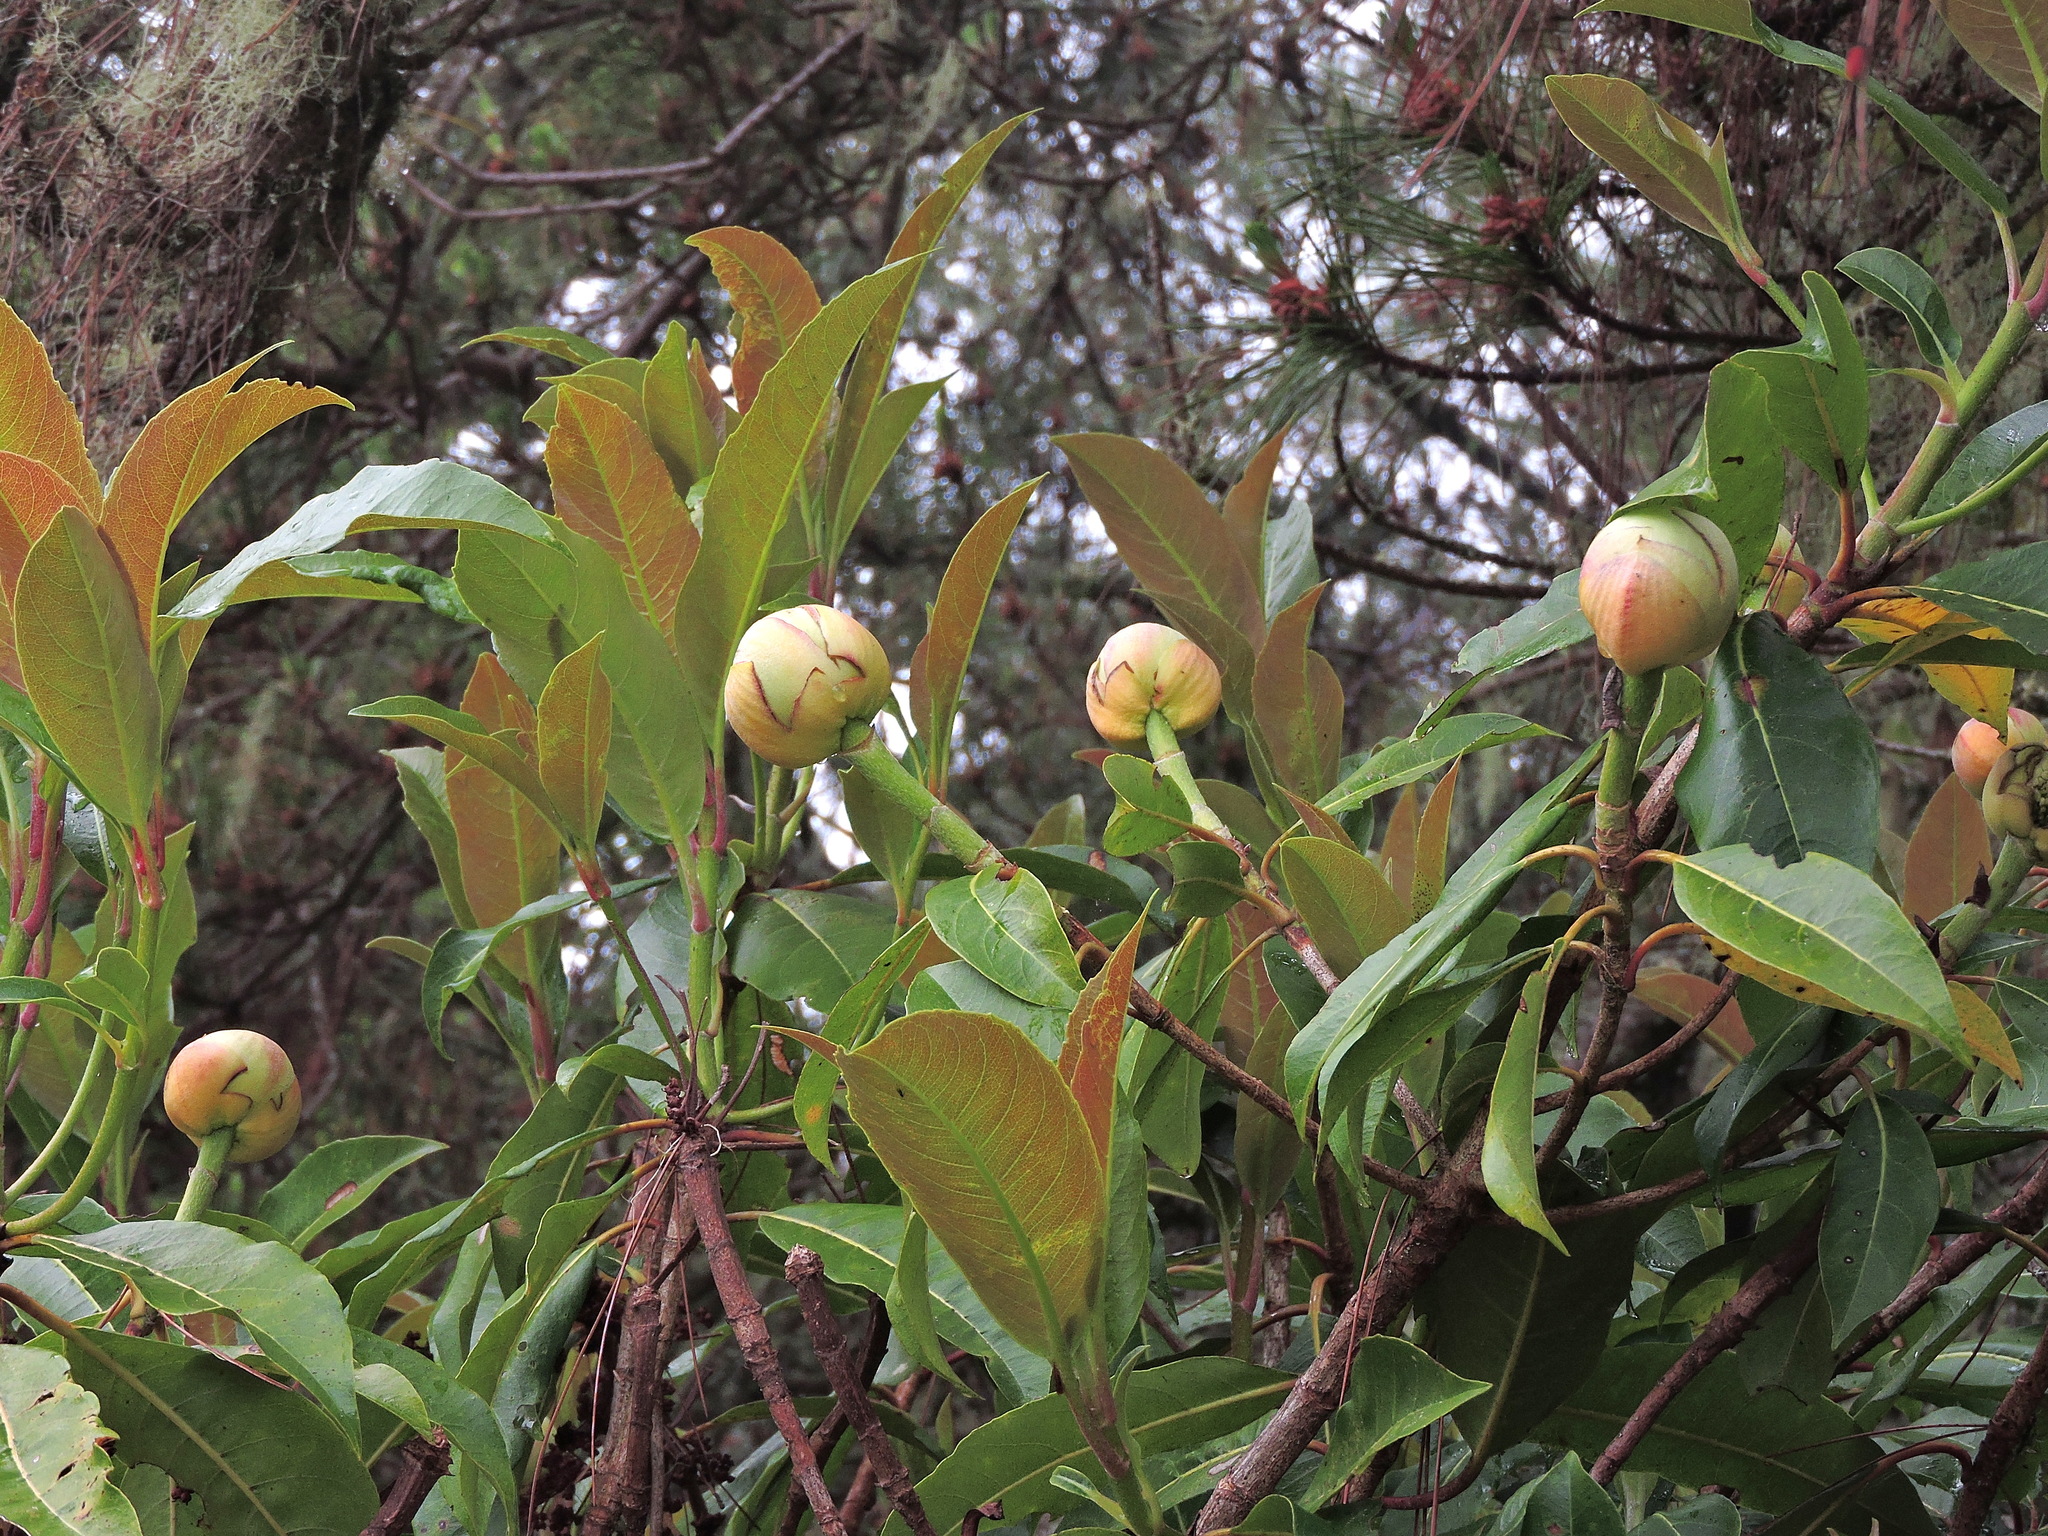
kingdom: Plantae
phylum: Tracheophyta
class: Magnoliopsida
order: Cornales
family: Hydrangeaceae
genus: Hydrangea
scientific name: Hydrangea integrifolia
